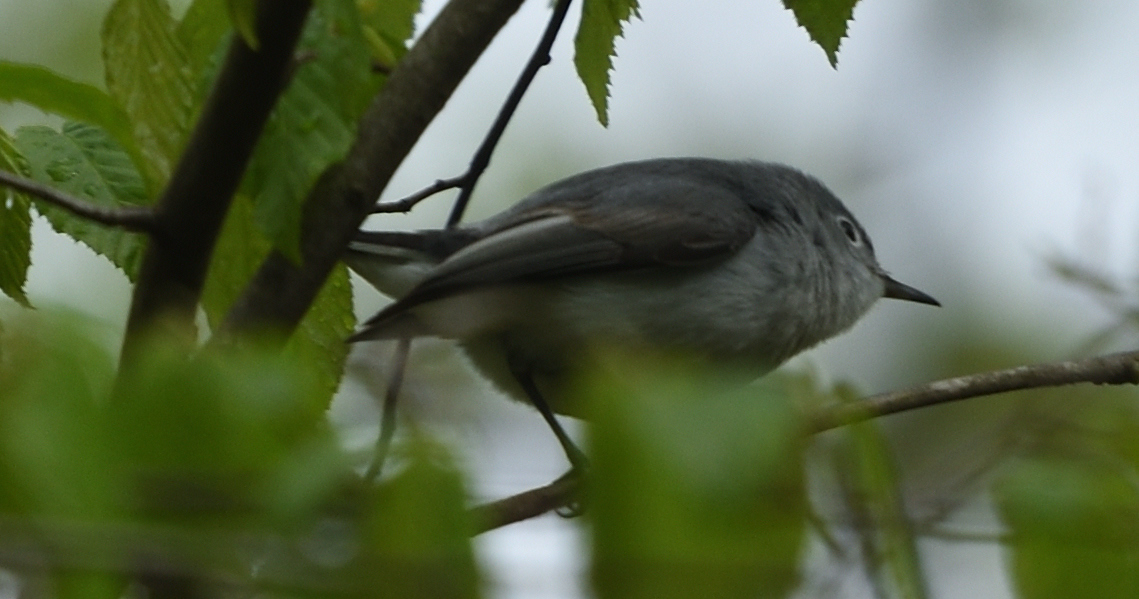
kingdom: Animalia
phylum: Chordata
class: Aves
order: Passeriformes
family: Polioptilidae
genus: Polioptila
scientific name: Polioptila caerulea
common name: Blue-gray gnatcatcher
